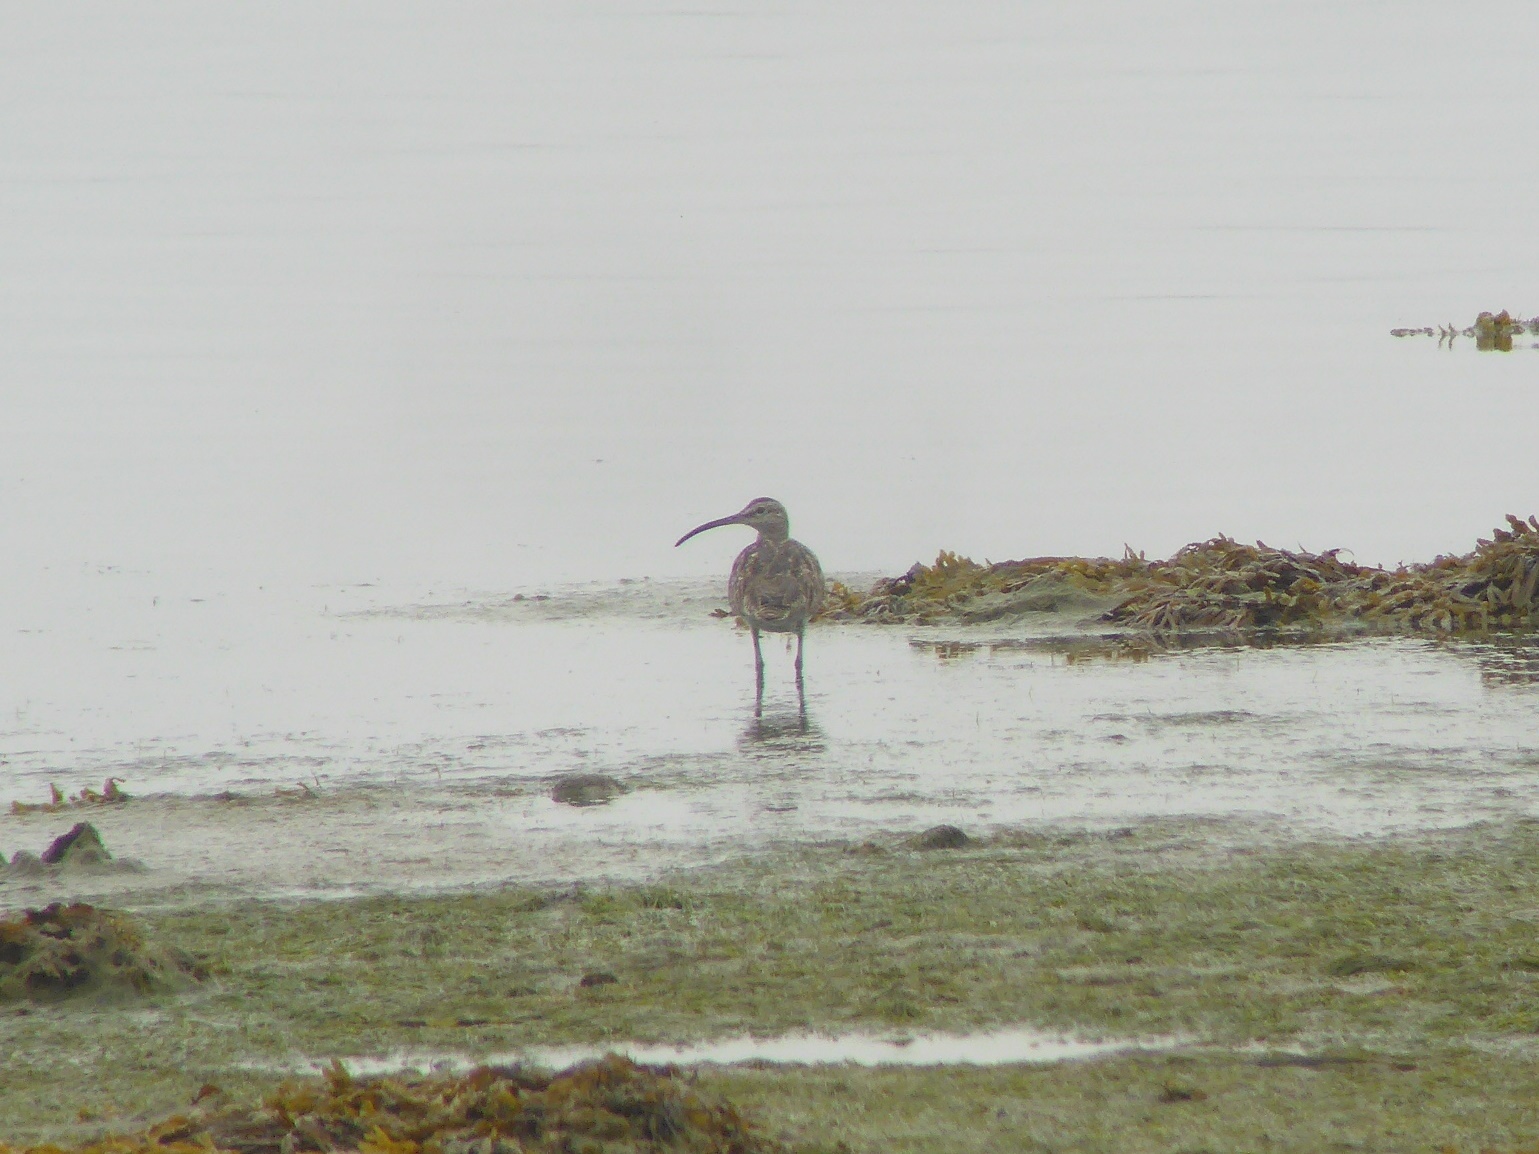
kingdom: Animalia
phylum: Chordata
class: Aves
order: Charadriiformes
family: Scolopacidae
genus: Numenius
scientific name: Numenius phaeopus
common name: Whimbrel
